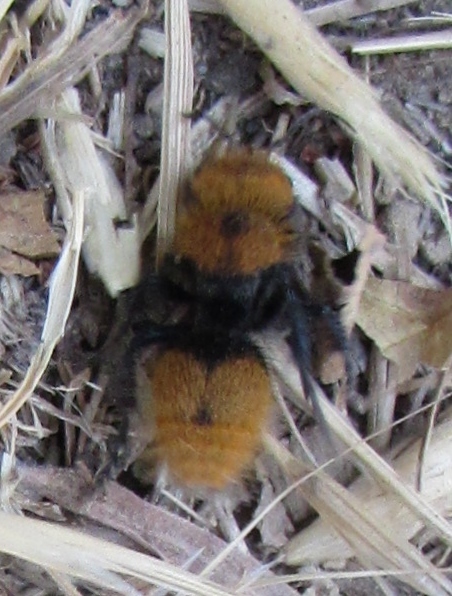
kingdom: Animalia
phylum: Arthropoda
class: Insecta
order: Hymenoptera
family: Mutillidae
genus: Dasymutilla
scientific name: Dasymutilla
